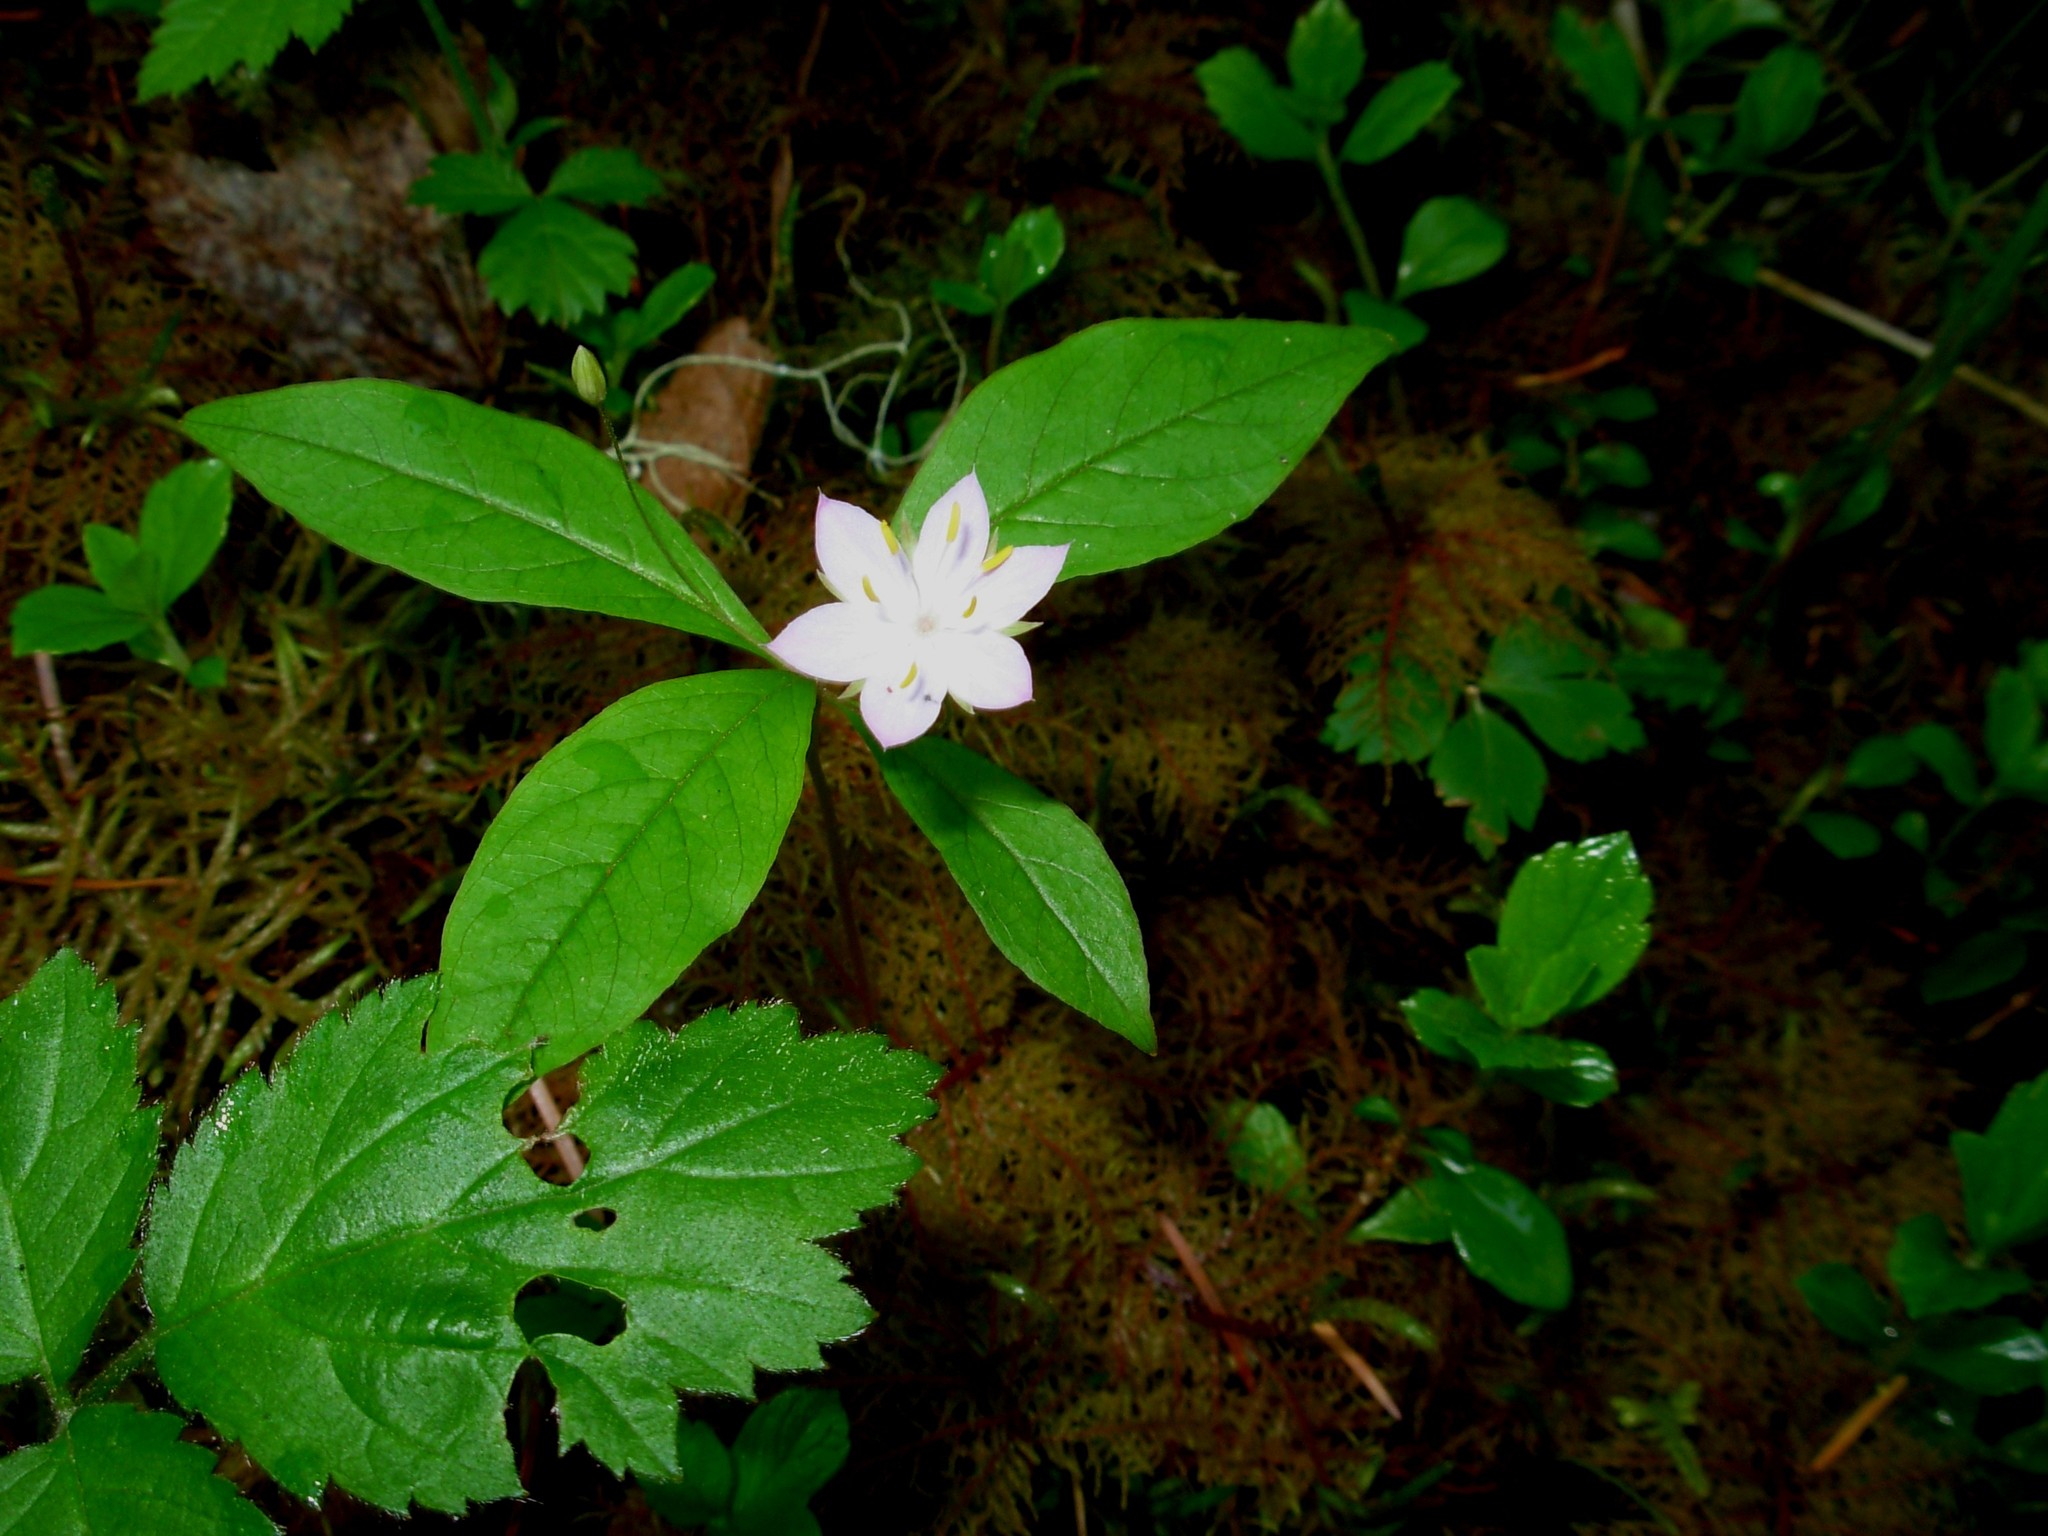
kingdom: Plantae
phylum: Tracheophyta
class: Magnoliopsida
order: Ericales
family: Primulaceae
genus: Lysimachia
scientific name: Lysimachia latifolia
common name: Pacific starflower
